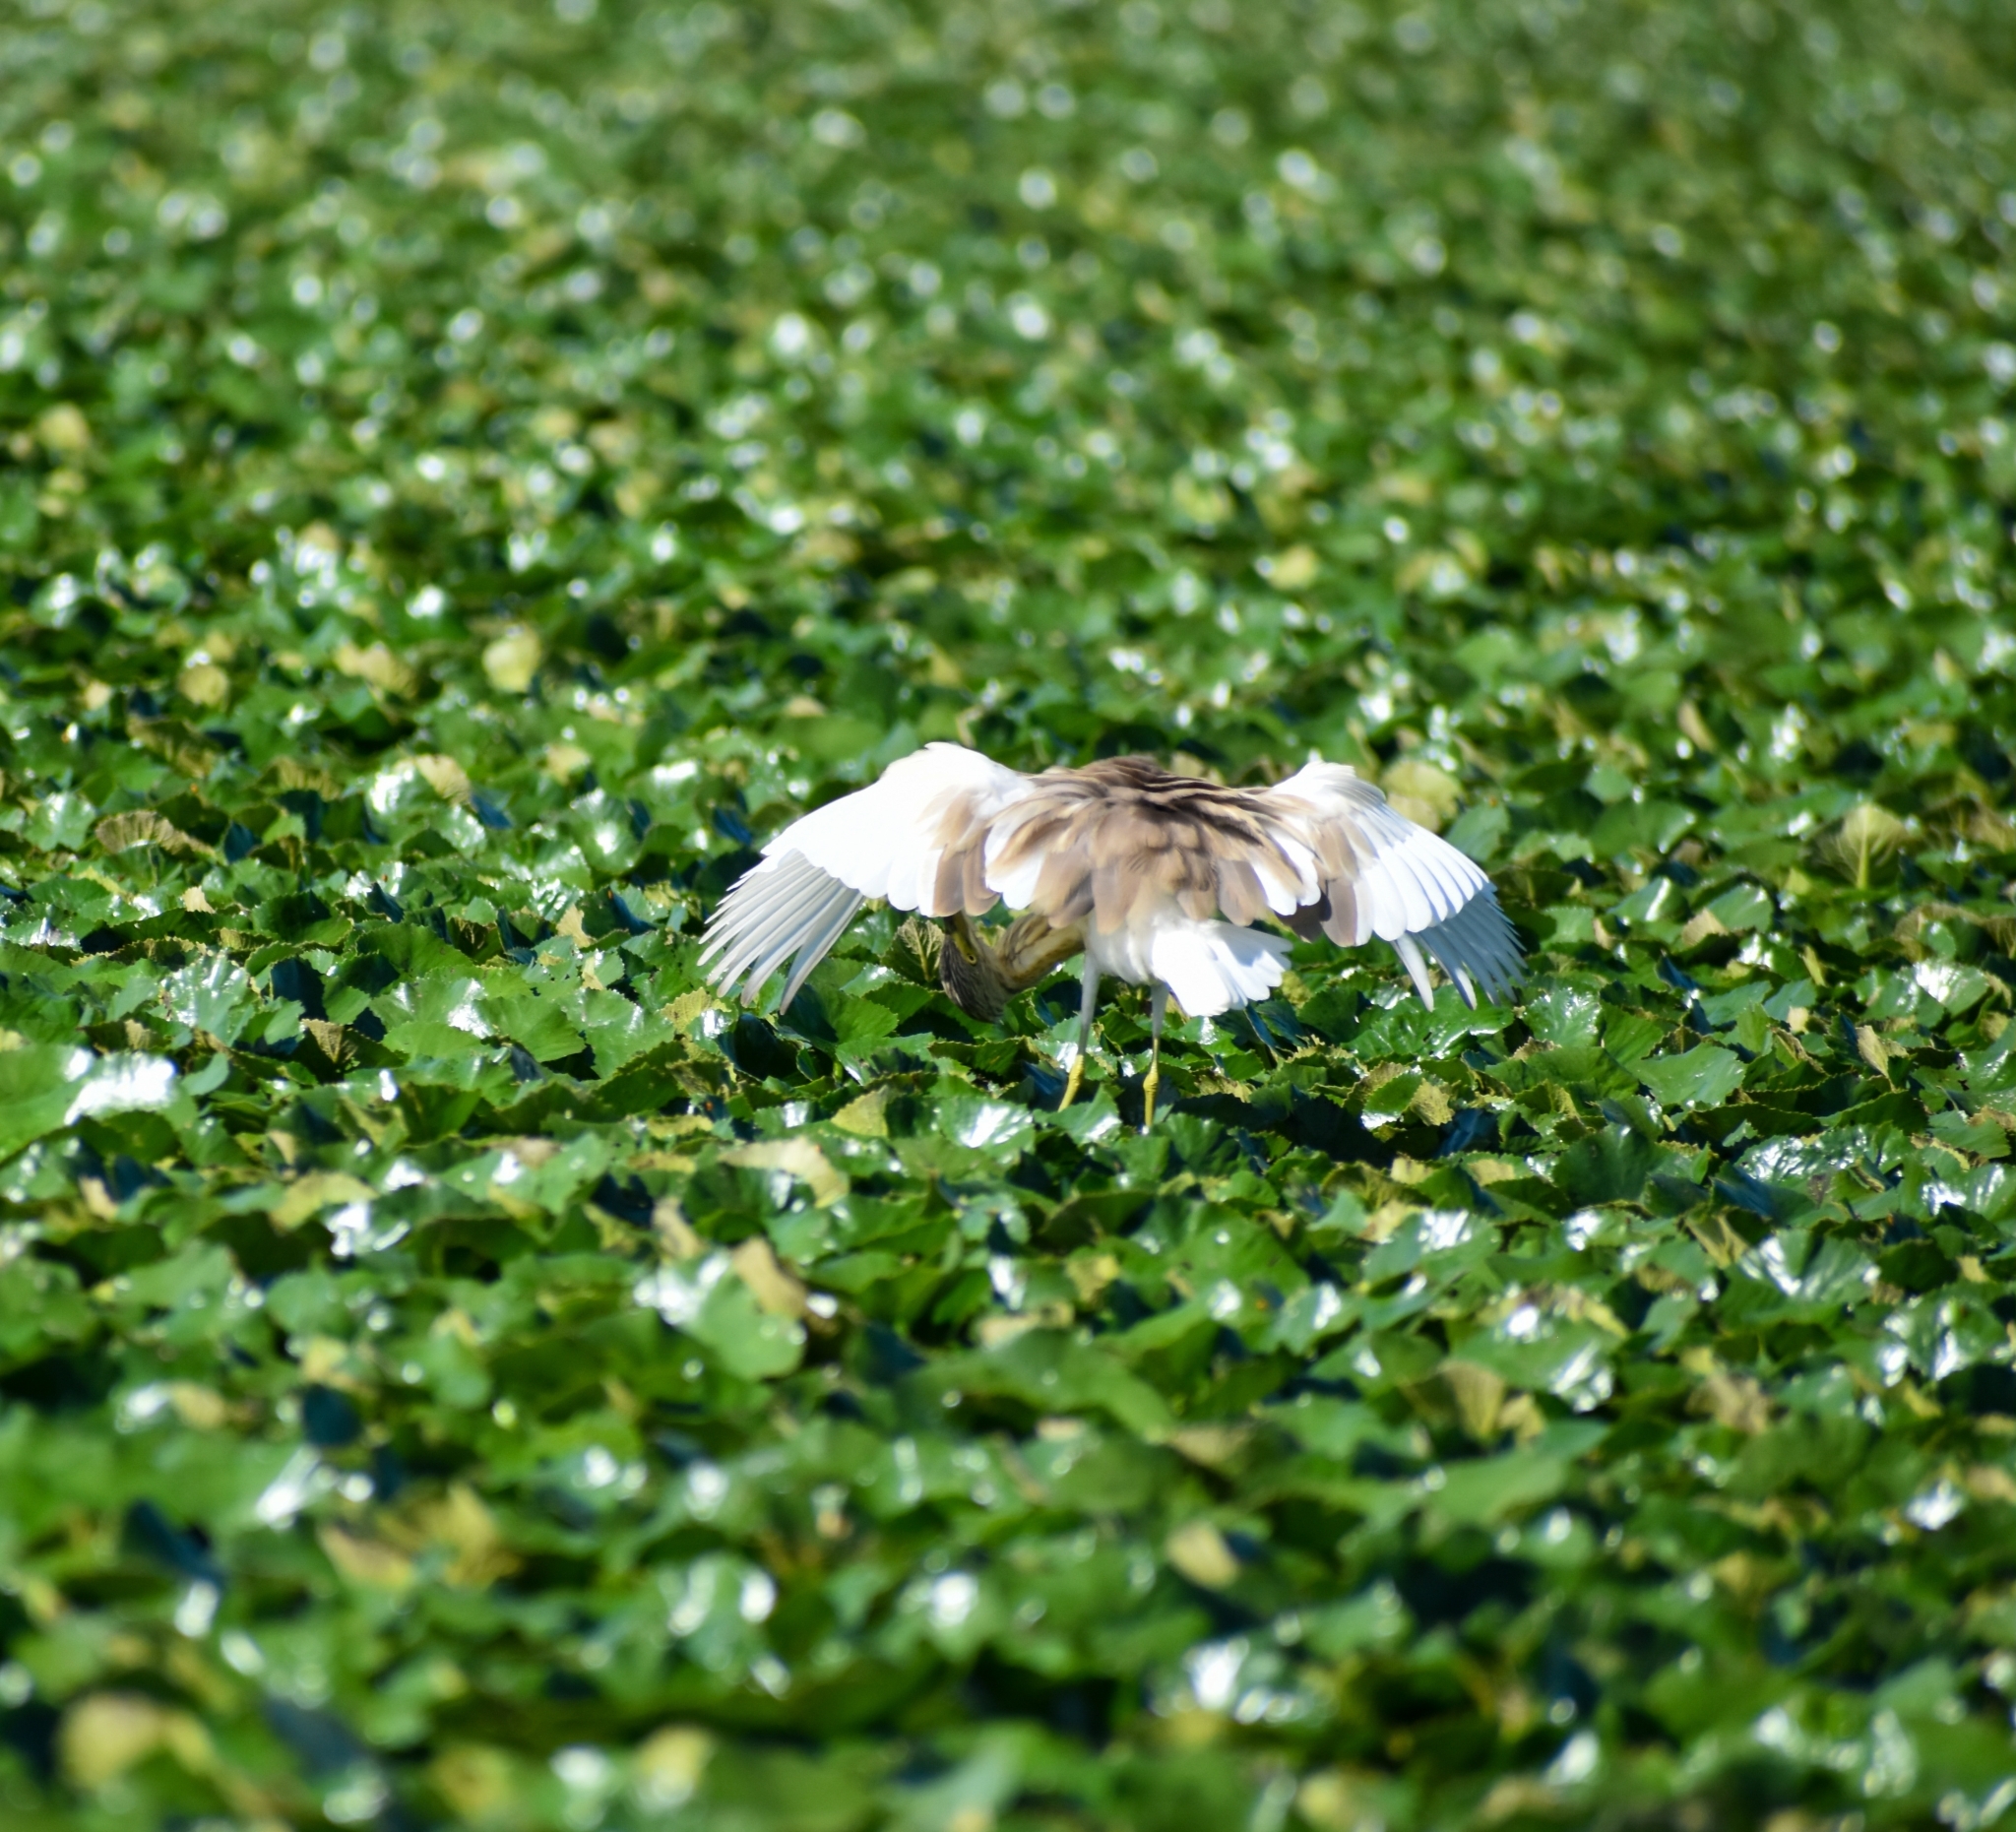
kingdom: Animalia
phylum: Chordata
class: Aves
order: Pelecaniformes
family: Ardeidae
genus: Ardeola
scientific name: Ardeola ralloides
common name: Squacco heron
